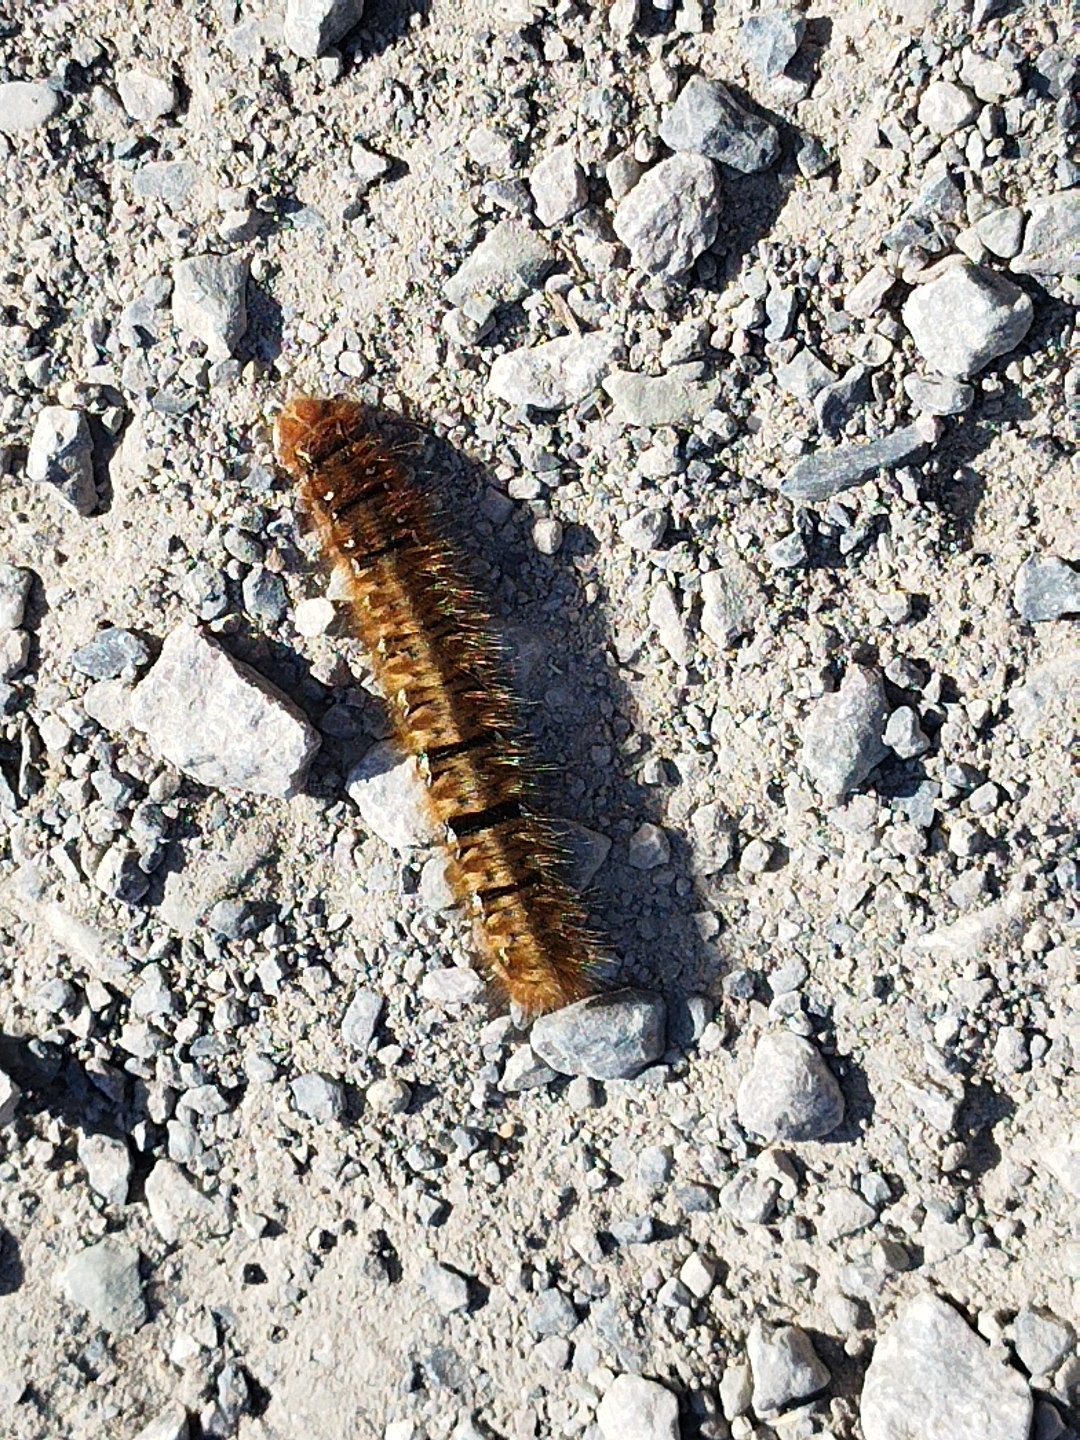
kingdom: Animalia
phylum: Arthropoda
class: Insecta
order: Lepidoptera
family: Lasiocampidae
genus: Lasiocampa
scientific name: Lasiocampa quercus
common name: Oak eggar
